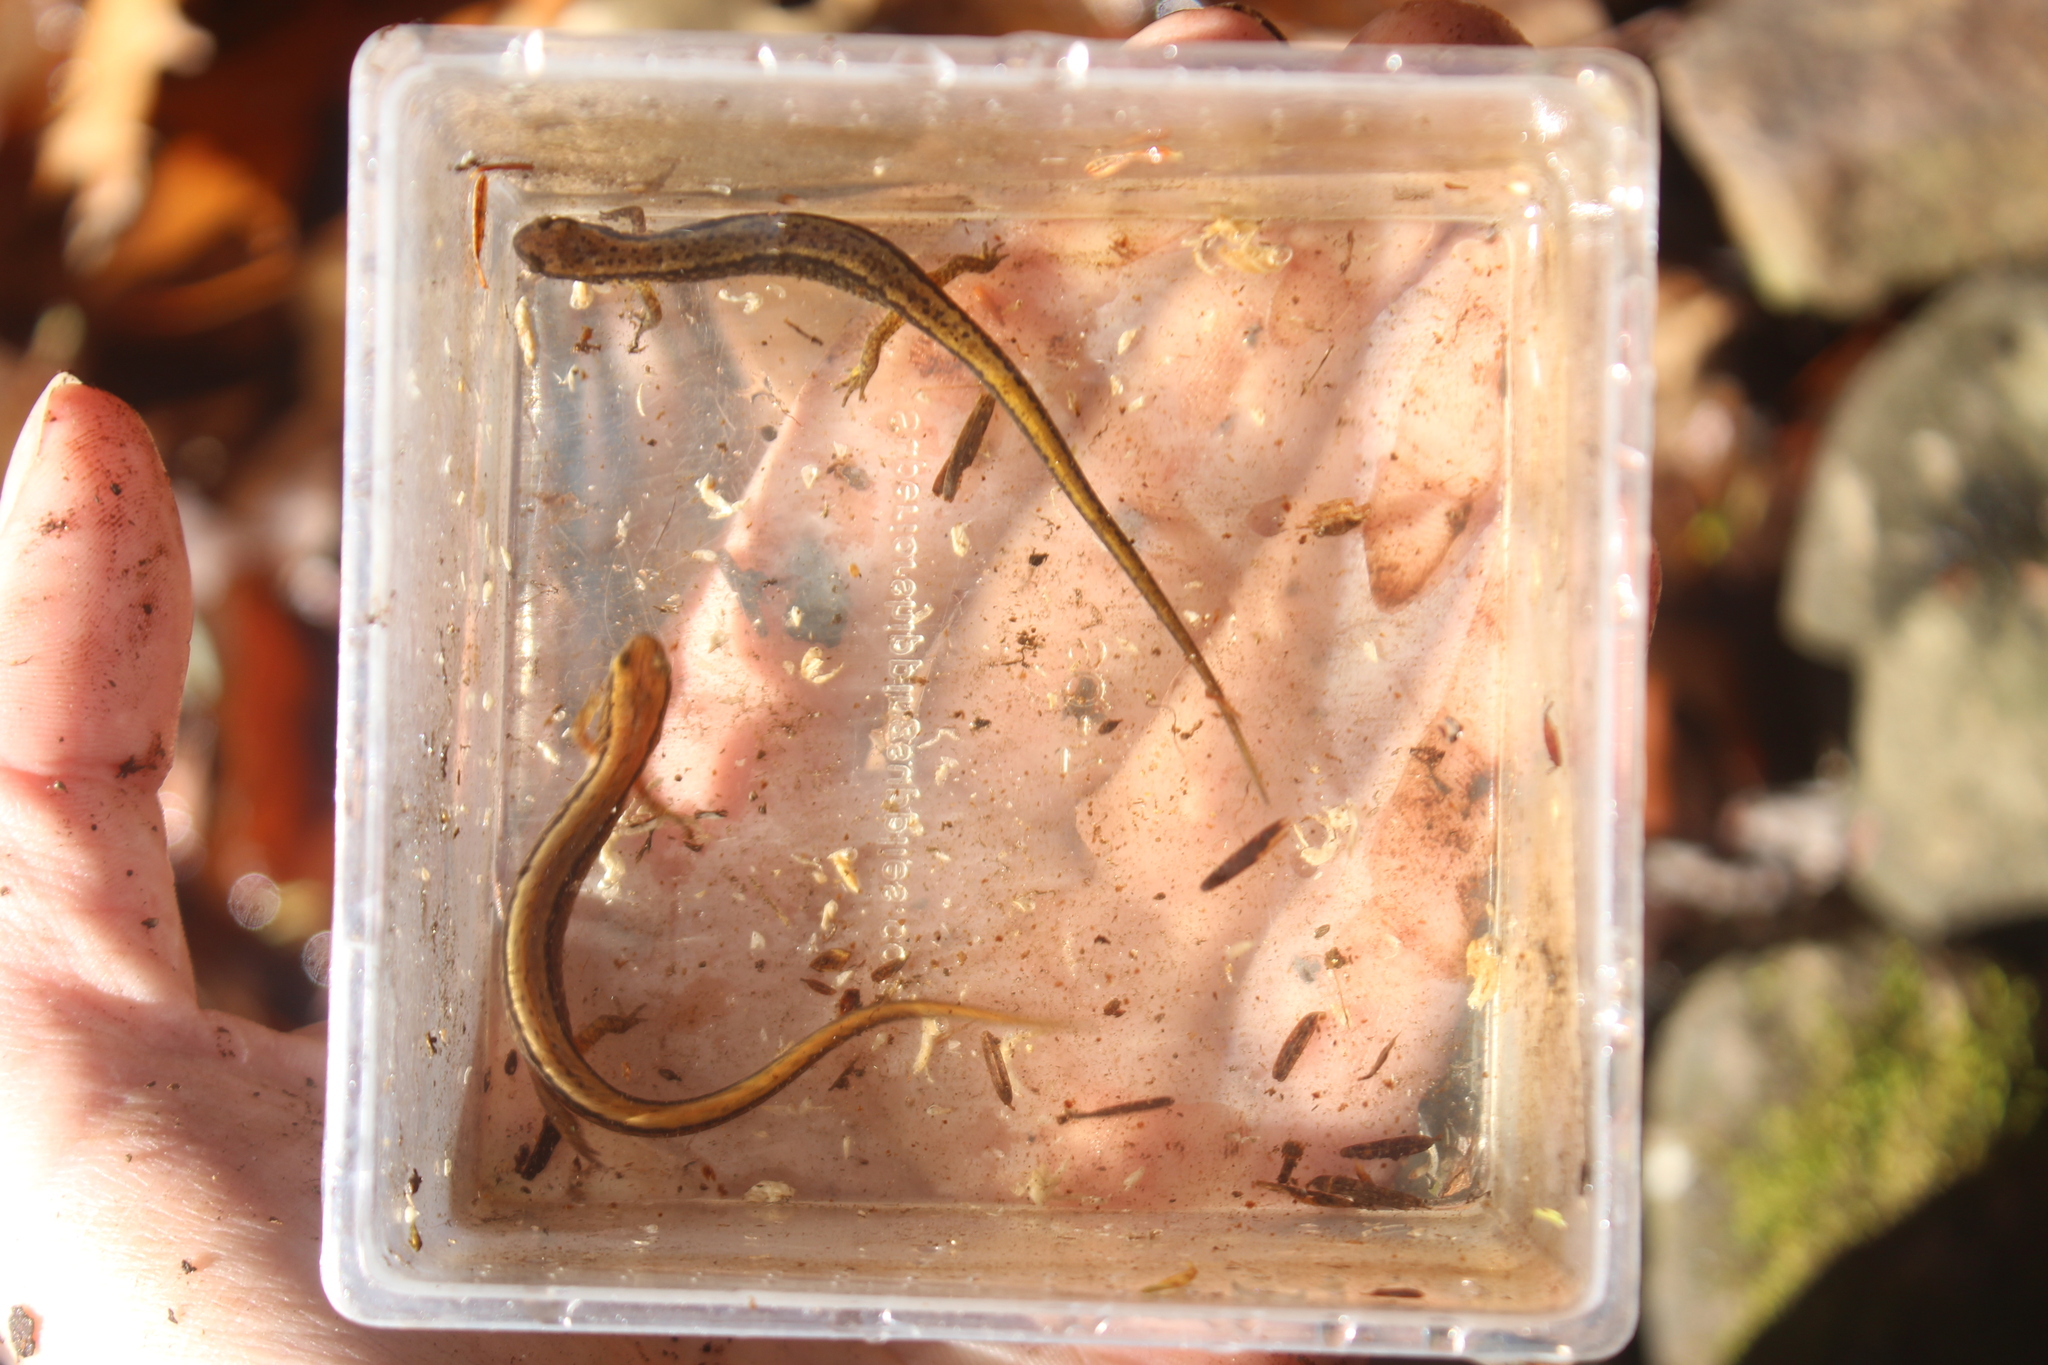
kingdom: Animalia
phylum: Chordata
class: Amphibia
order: Caudata
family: Plethodontidae
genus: Eurycea
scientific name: Eurycea bislineata
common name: Northern two-lined salamander
